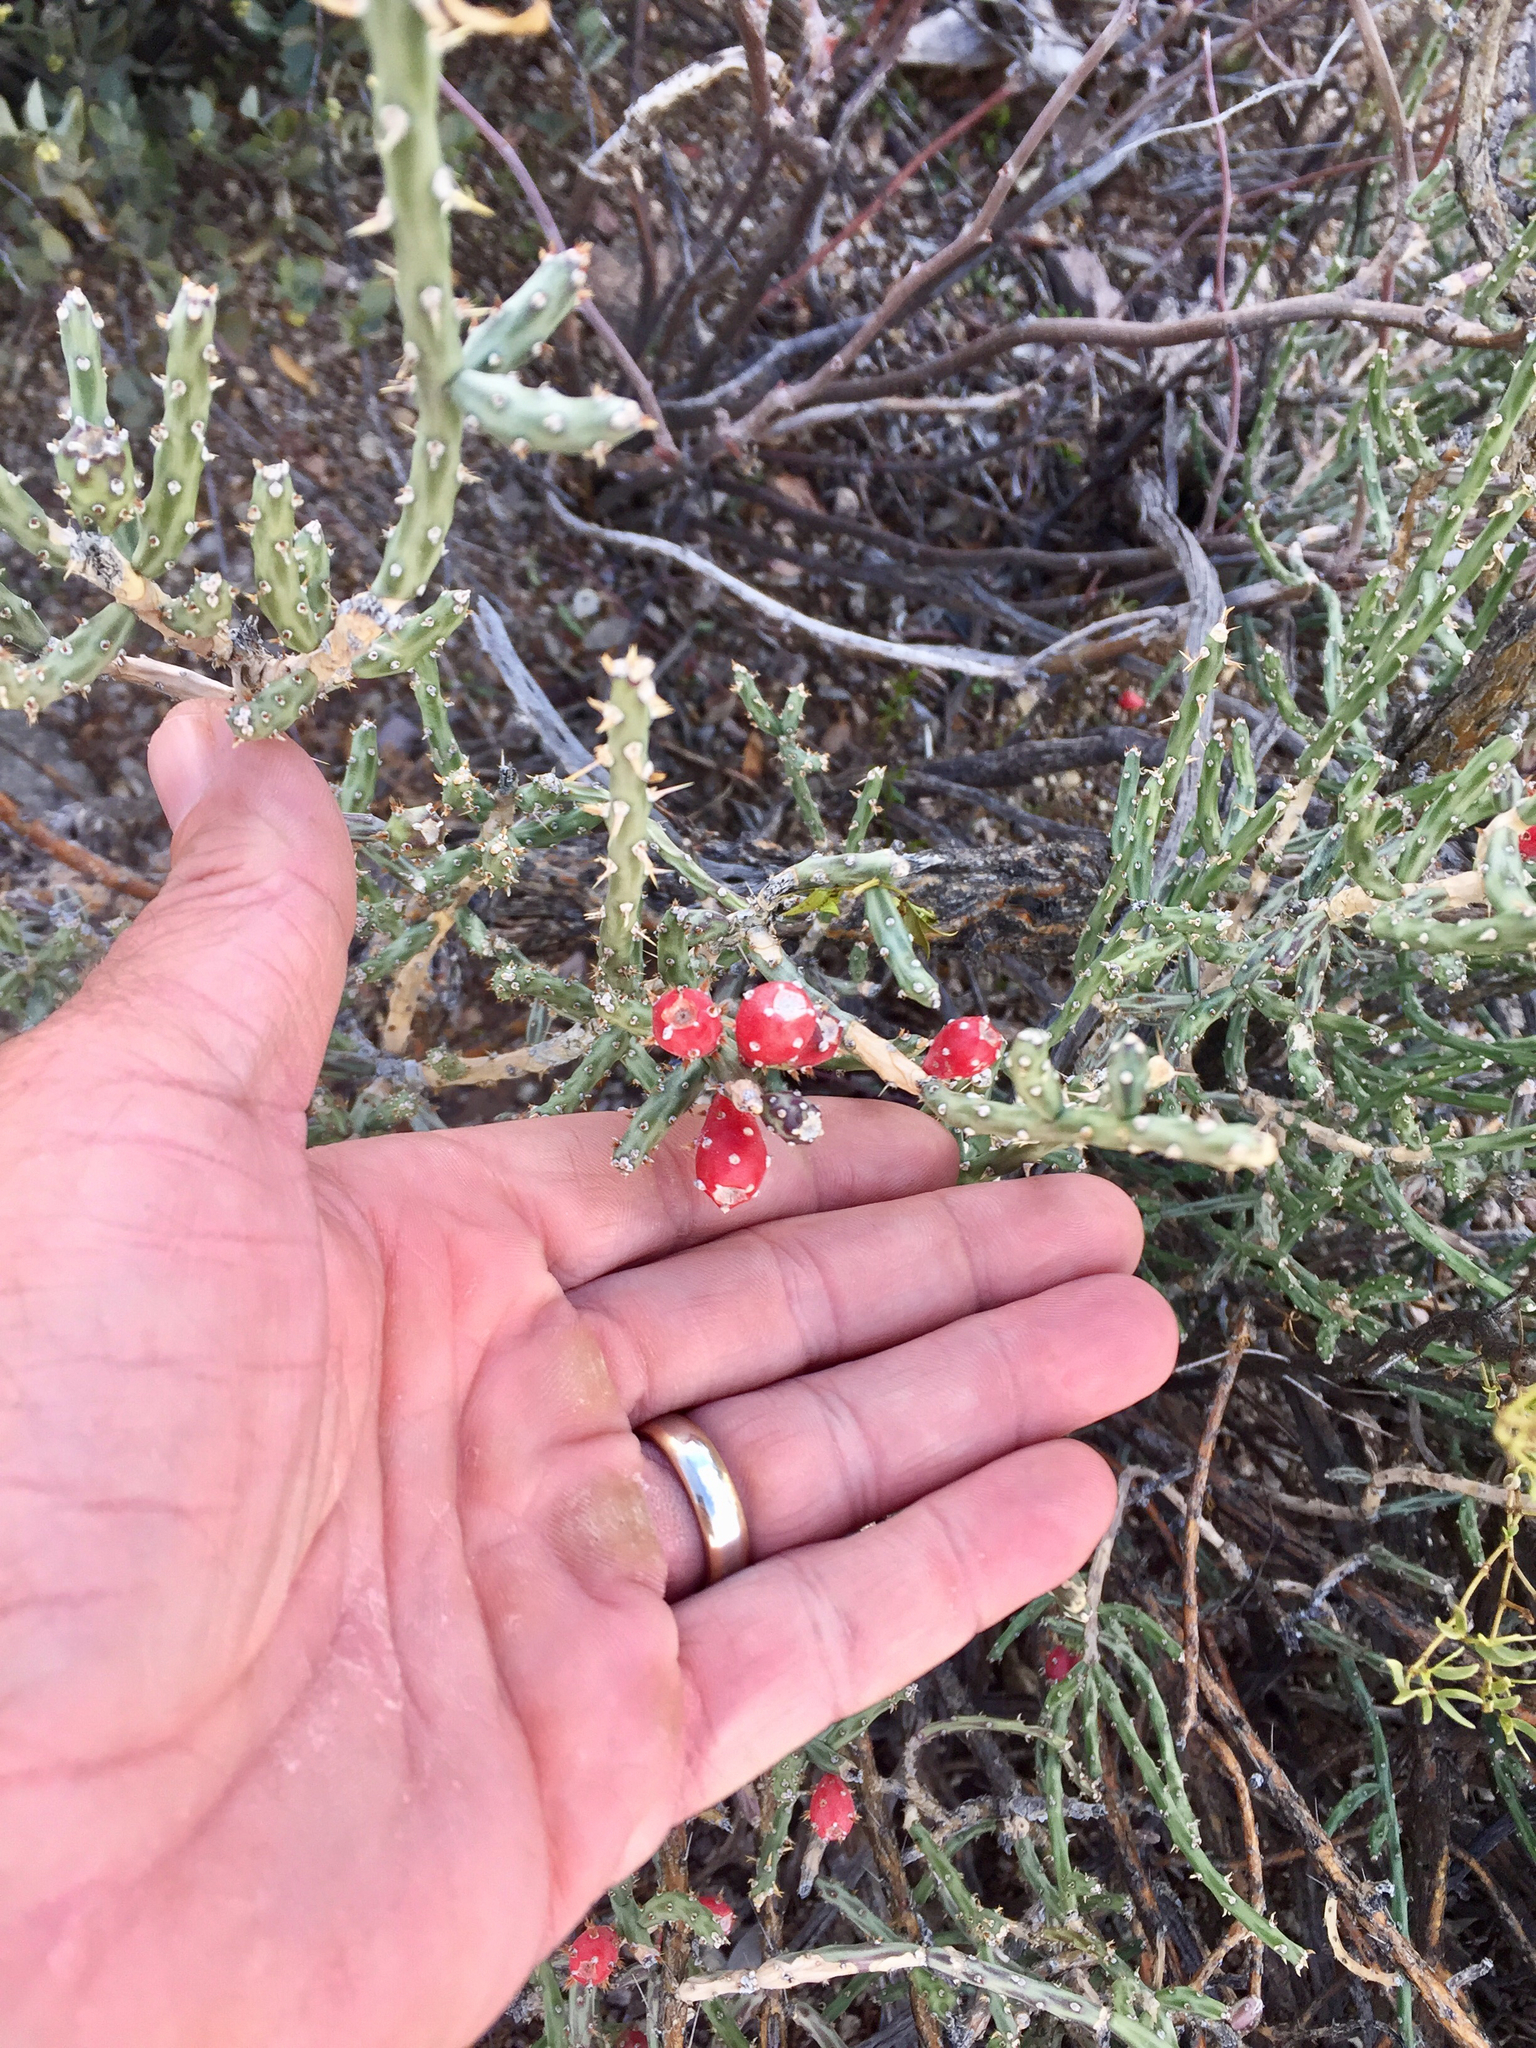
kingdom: Plantae
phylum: Tracheophyta
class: Magnoliopsida
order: Caryophyllales
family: Cactaceae
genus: Cylindropuntia
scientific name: Cylindropuntia leptocaulis
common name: Christmas cactus
